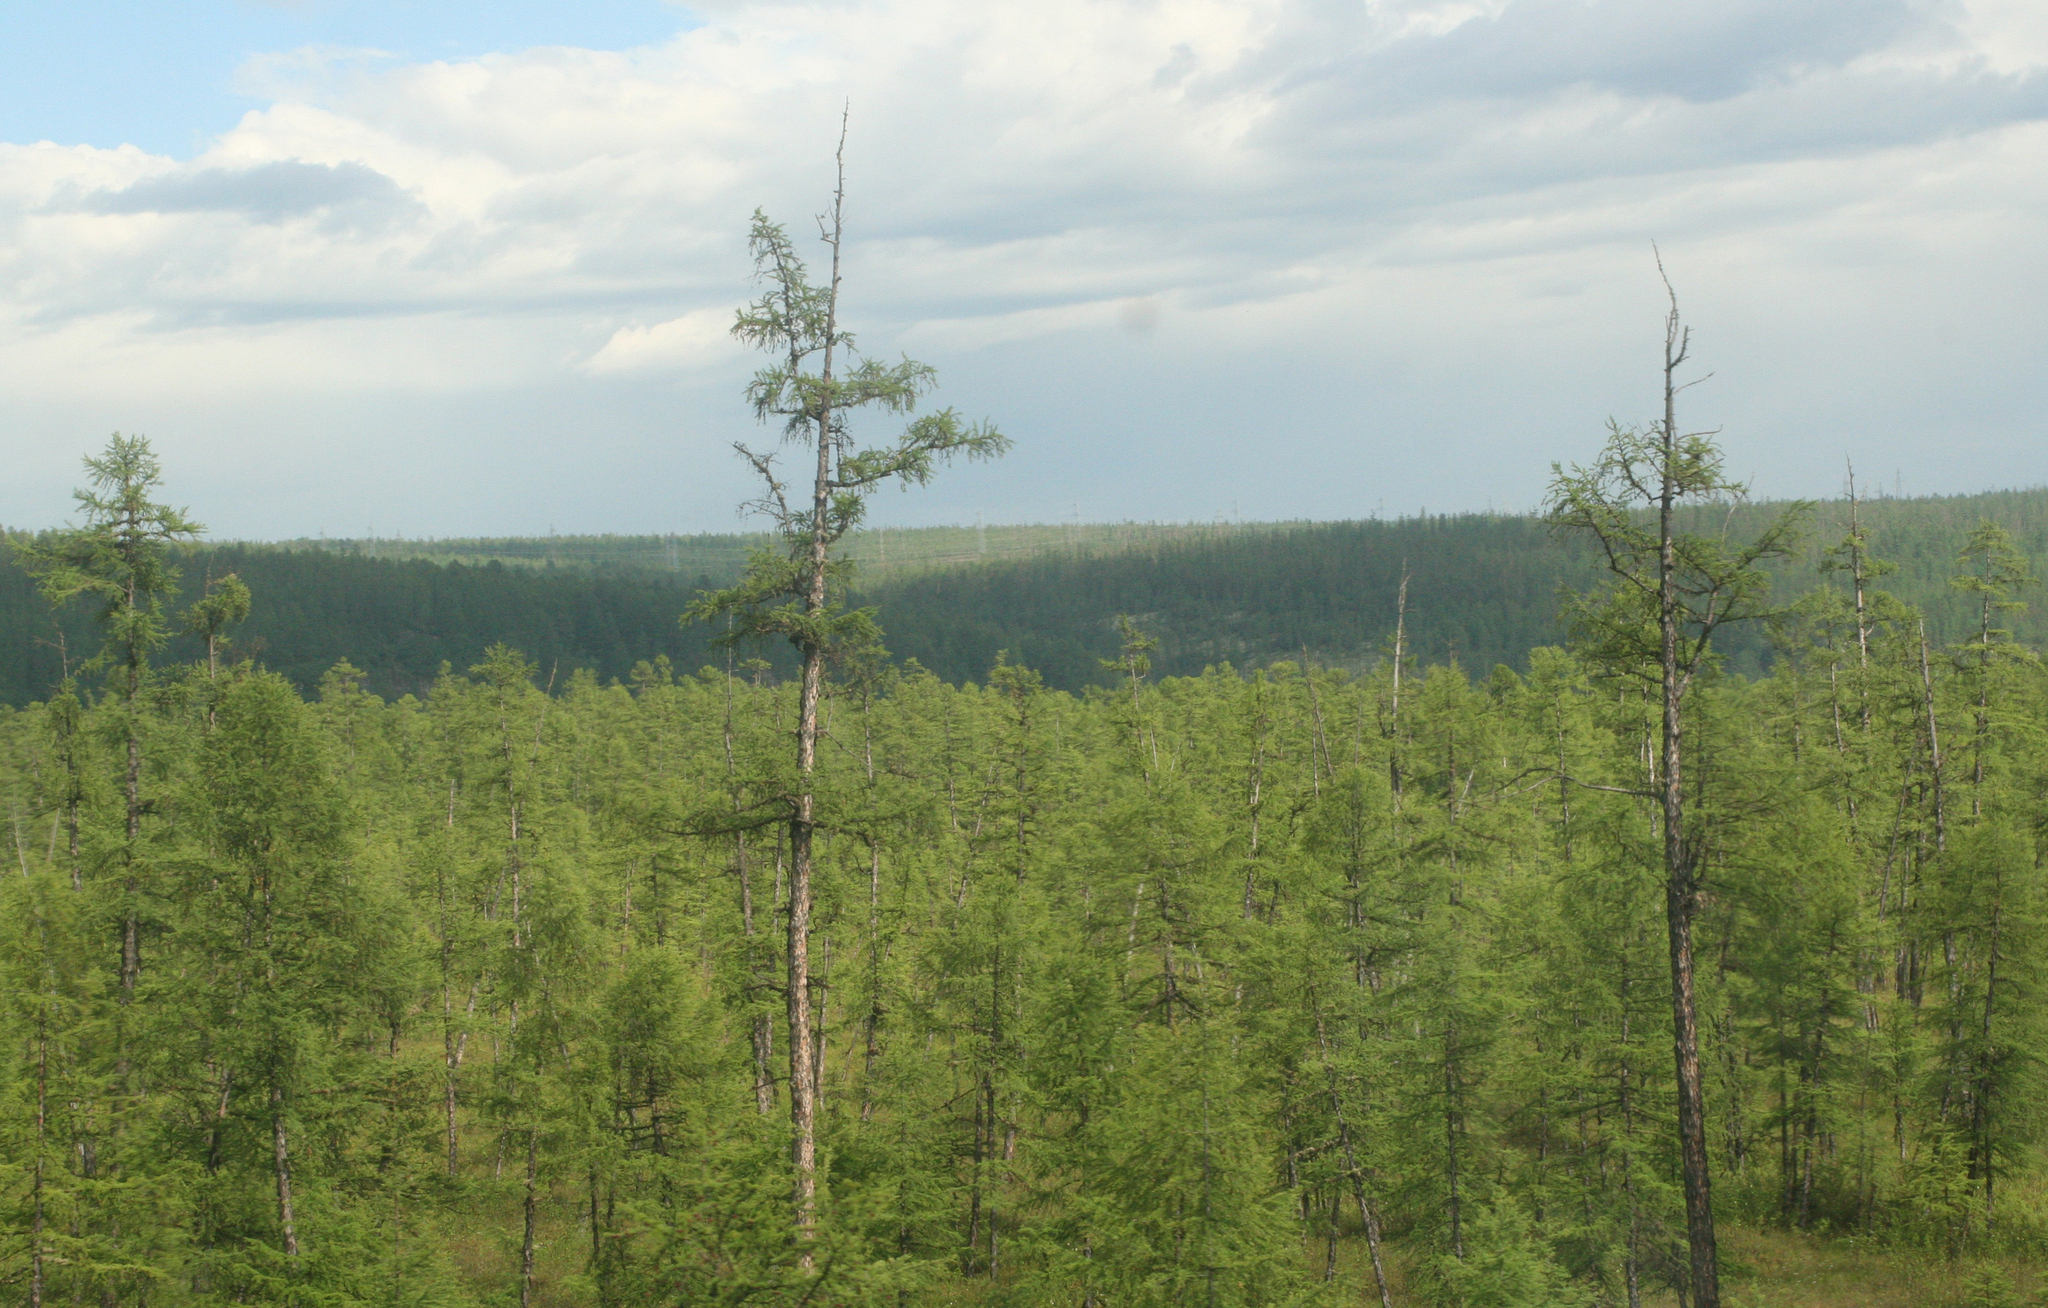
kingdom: Plantae
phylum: Tracheophyta
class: Pinopsida
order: Pinales
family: Pinaceae
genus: Larix
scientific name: Larix gmelinii
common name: Dahurian larch
